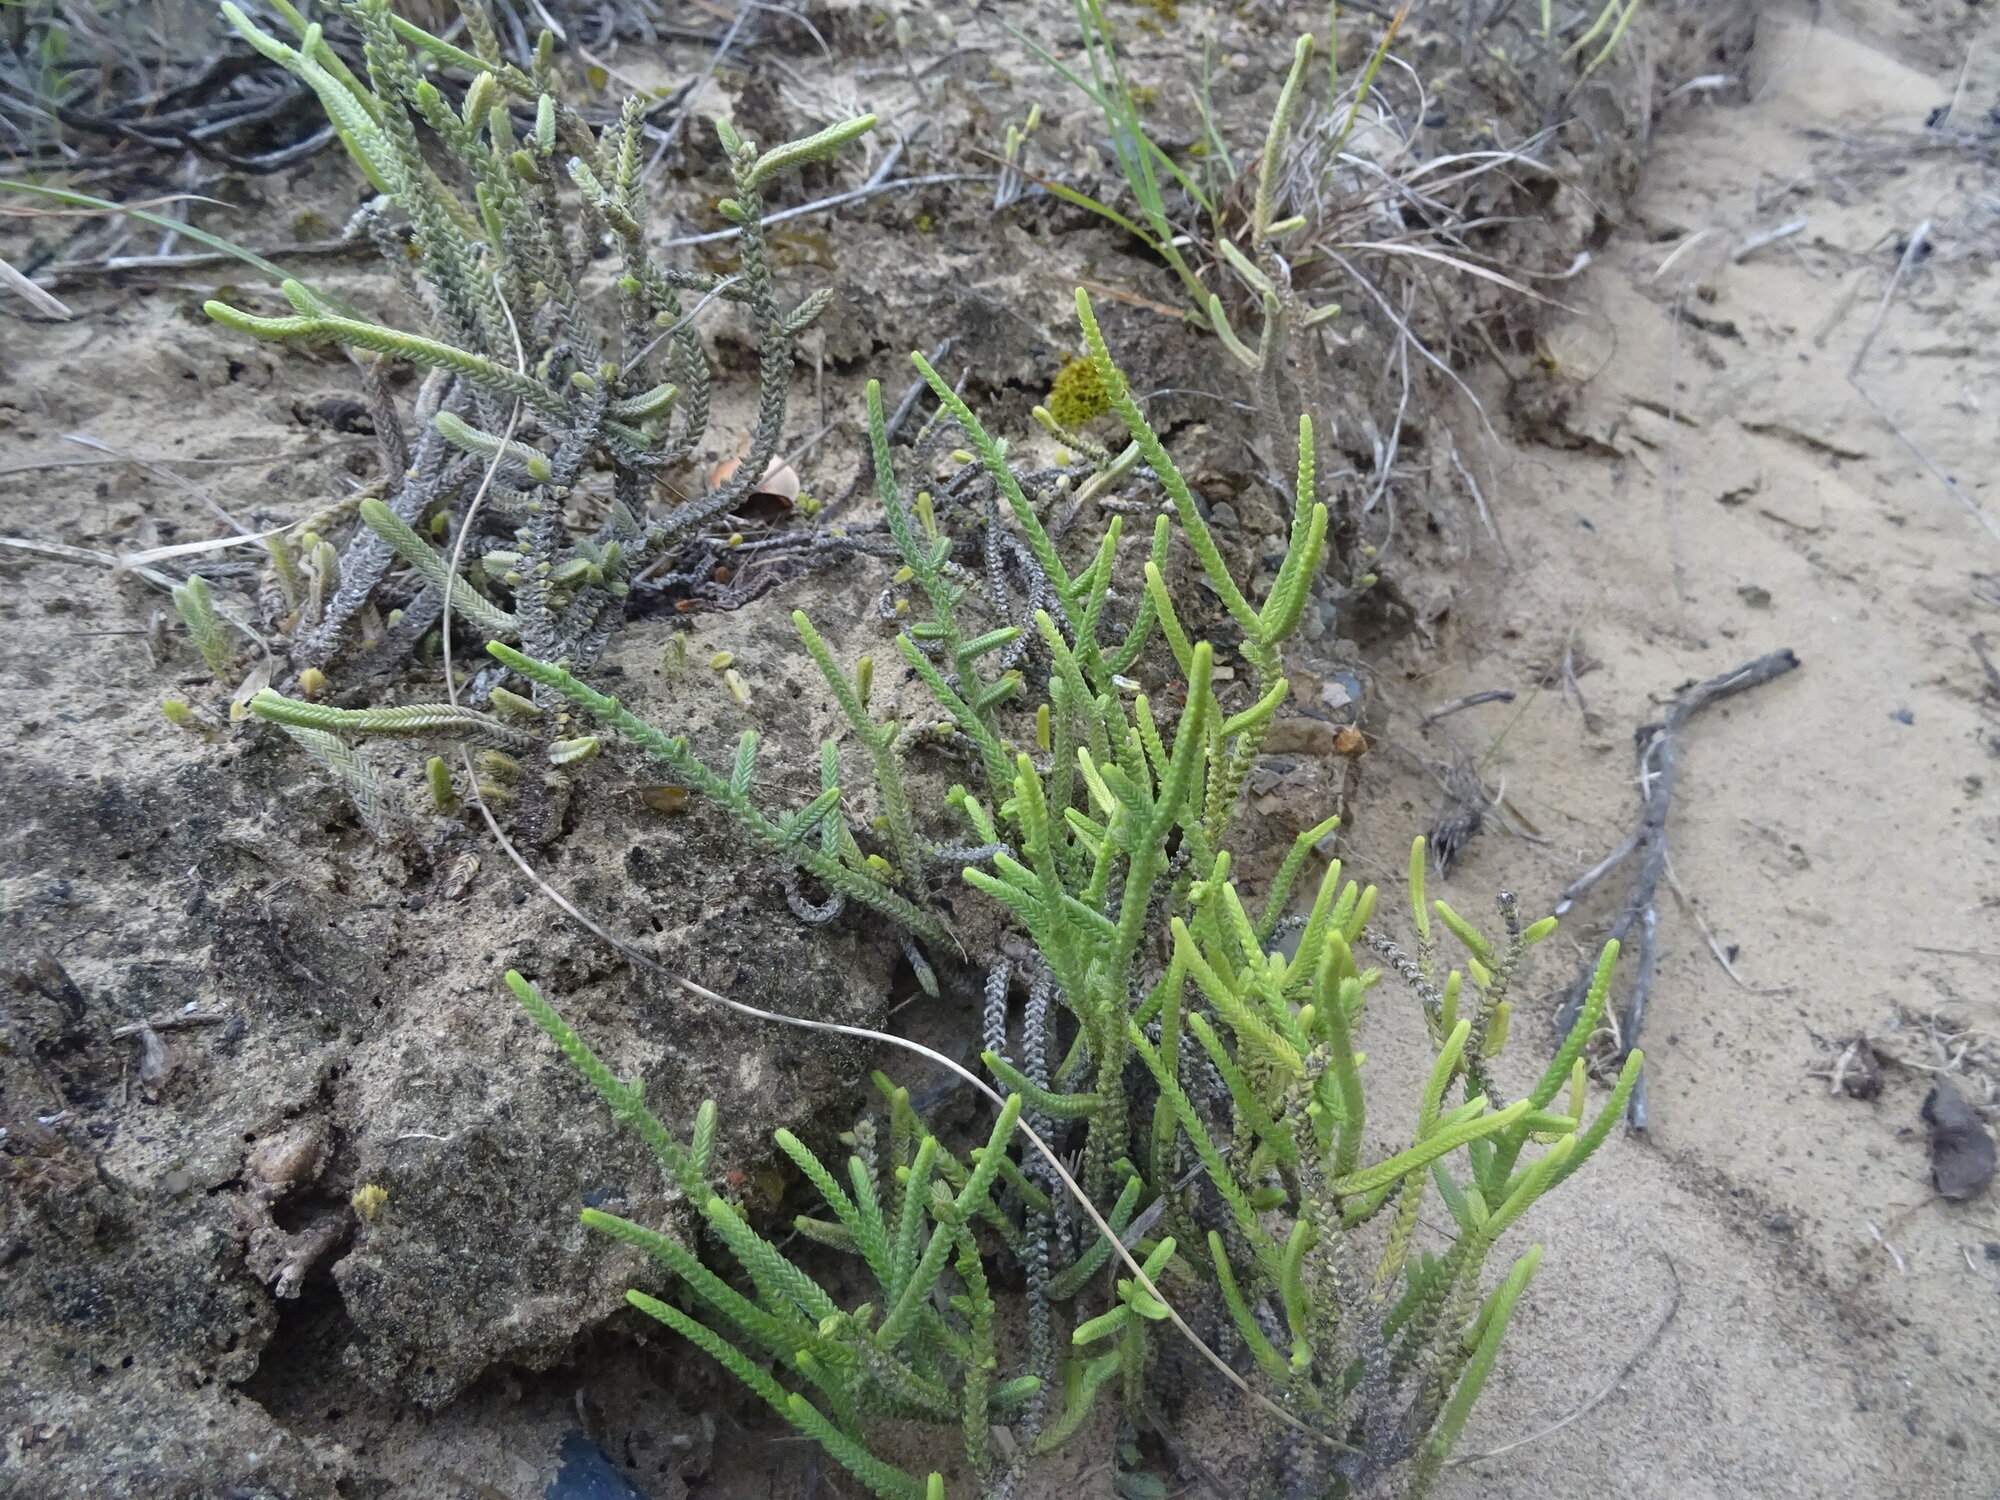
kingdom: Plantae
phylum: Tracheophyta
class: Magnoliopsida
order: Saxifragales
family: Crassulaceae
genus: Crassula
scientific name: Crassula muscosa
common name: Toy-cypress
